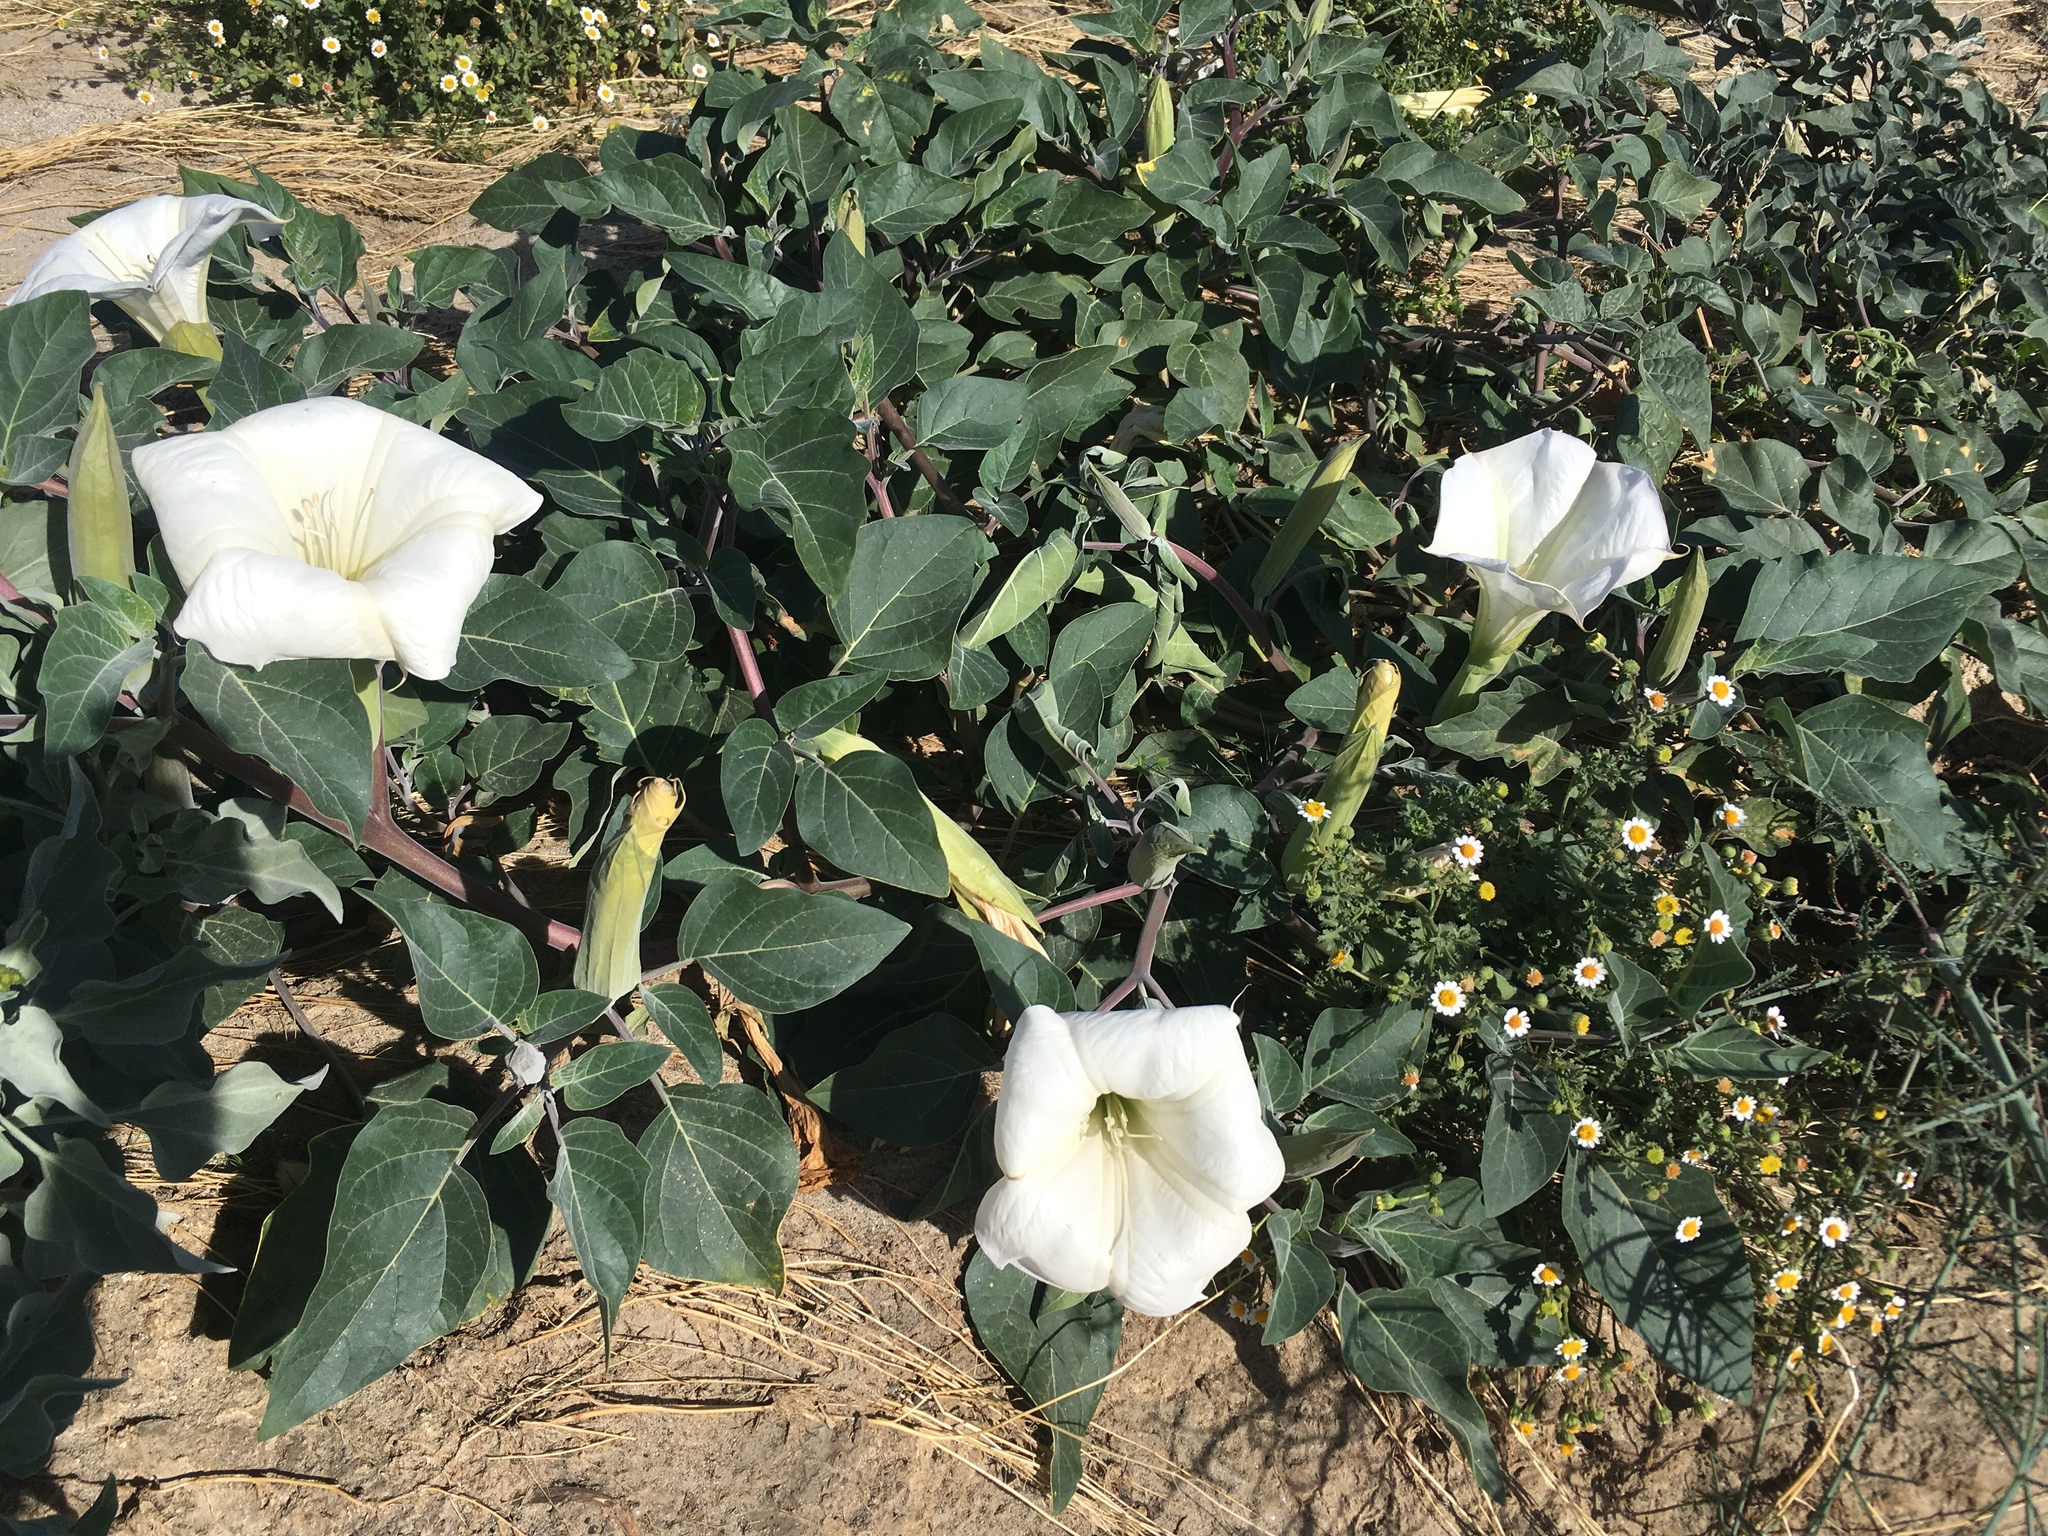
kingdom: Plantae
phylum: Tracheophyta
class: Magnoliopsida
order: Solanales
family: Solanaceae
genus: Datura
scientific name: Datura wrightii
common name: Sacred thorn-apple
